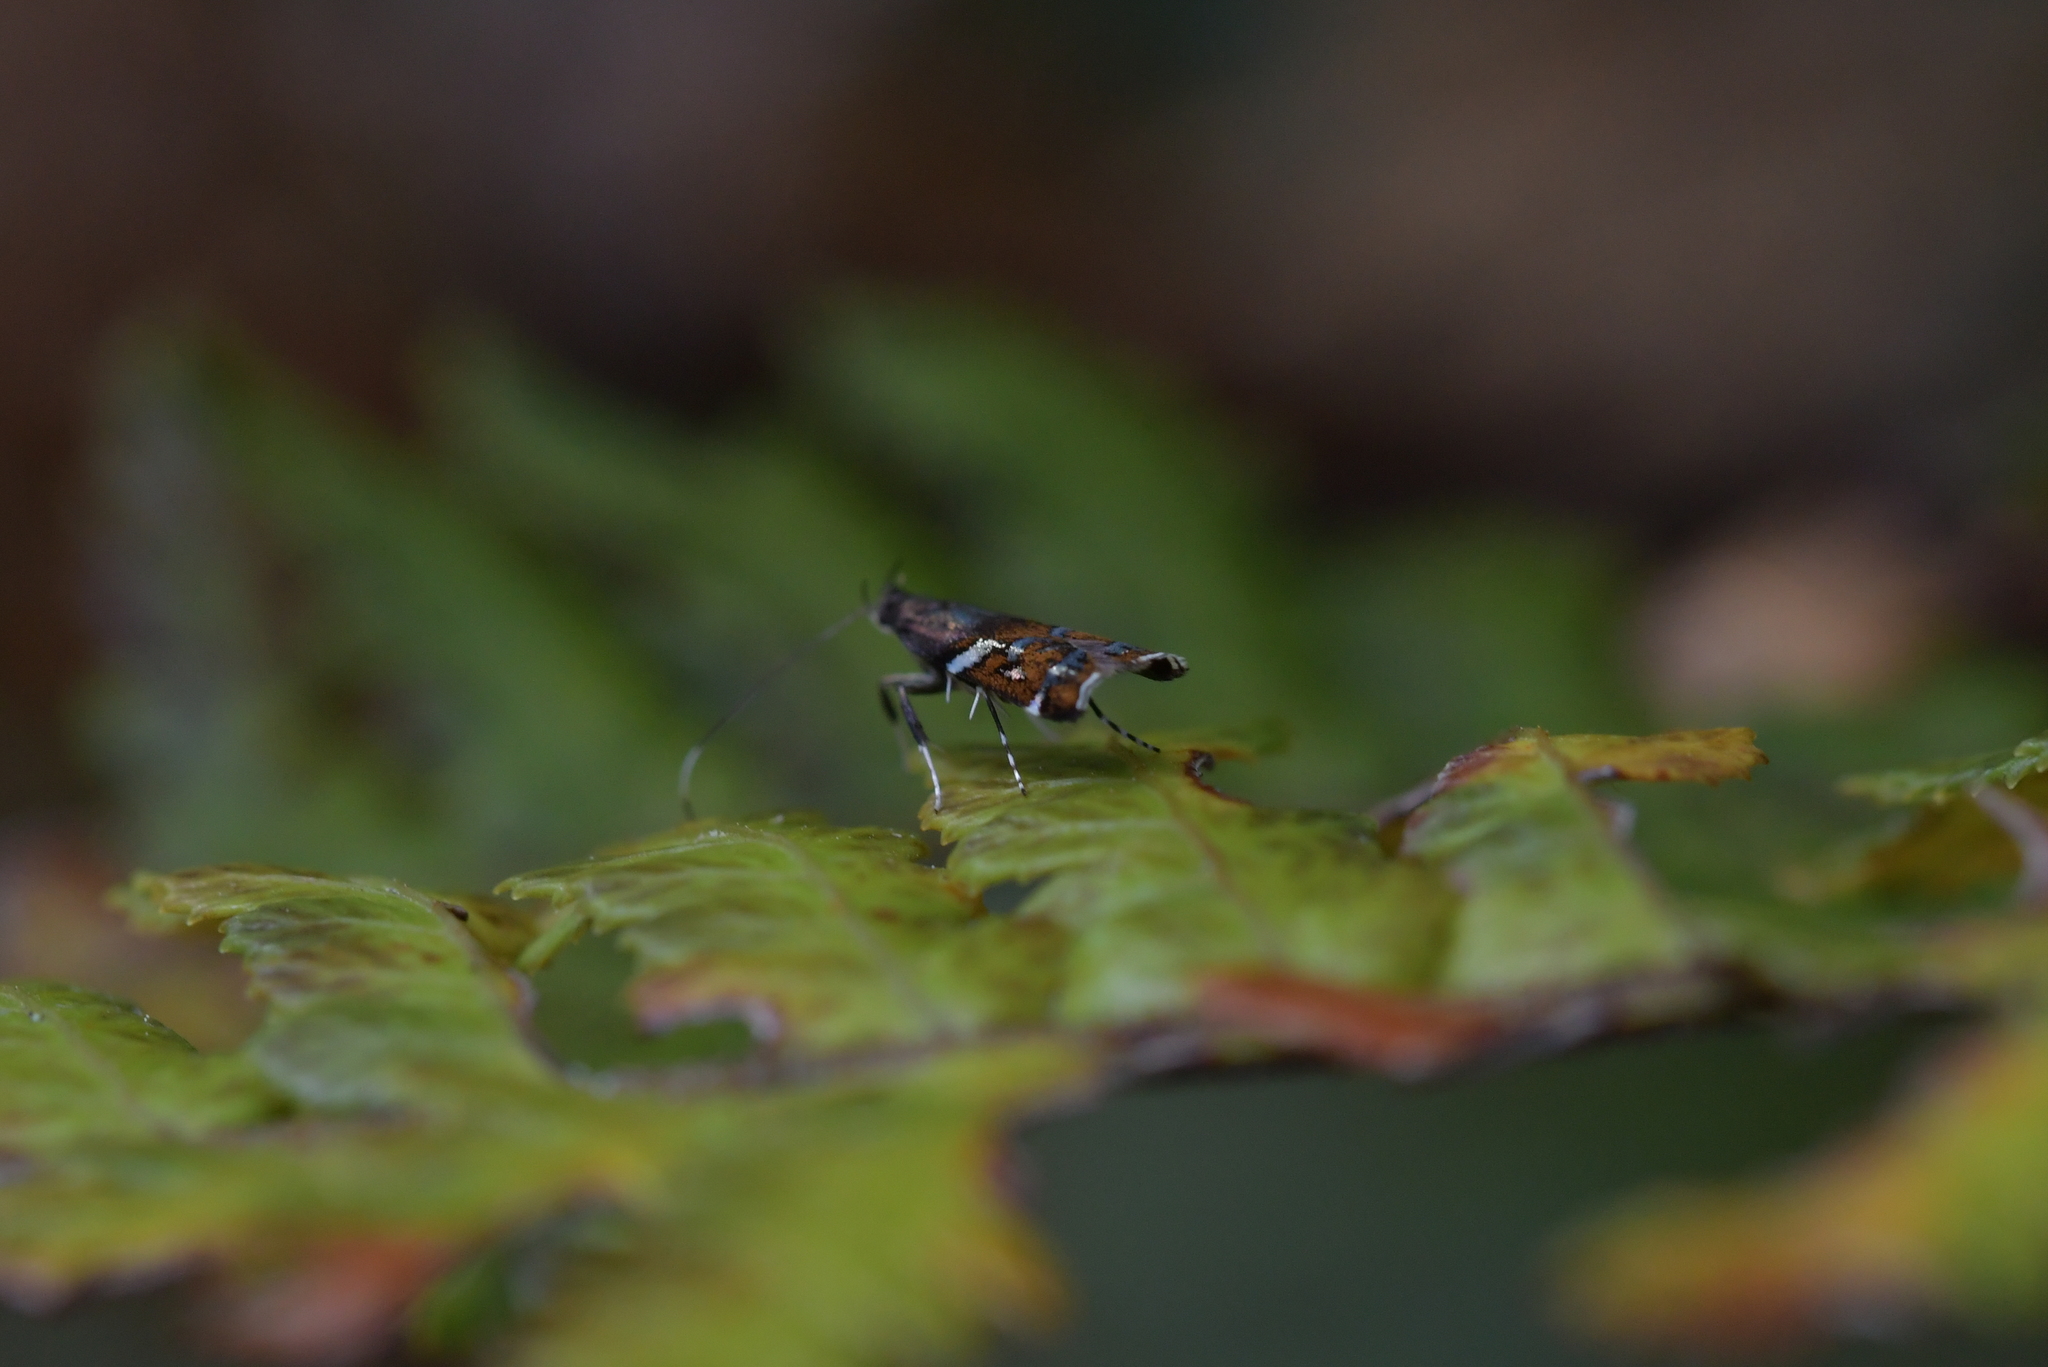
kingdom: Animalia
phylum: Arthropoda
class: Insecta
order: Lepidoptera
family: Depressariidae
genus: Compsistis
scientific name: Compsistis bifaciella
